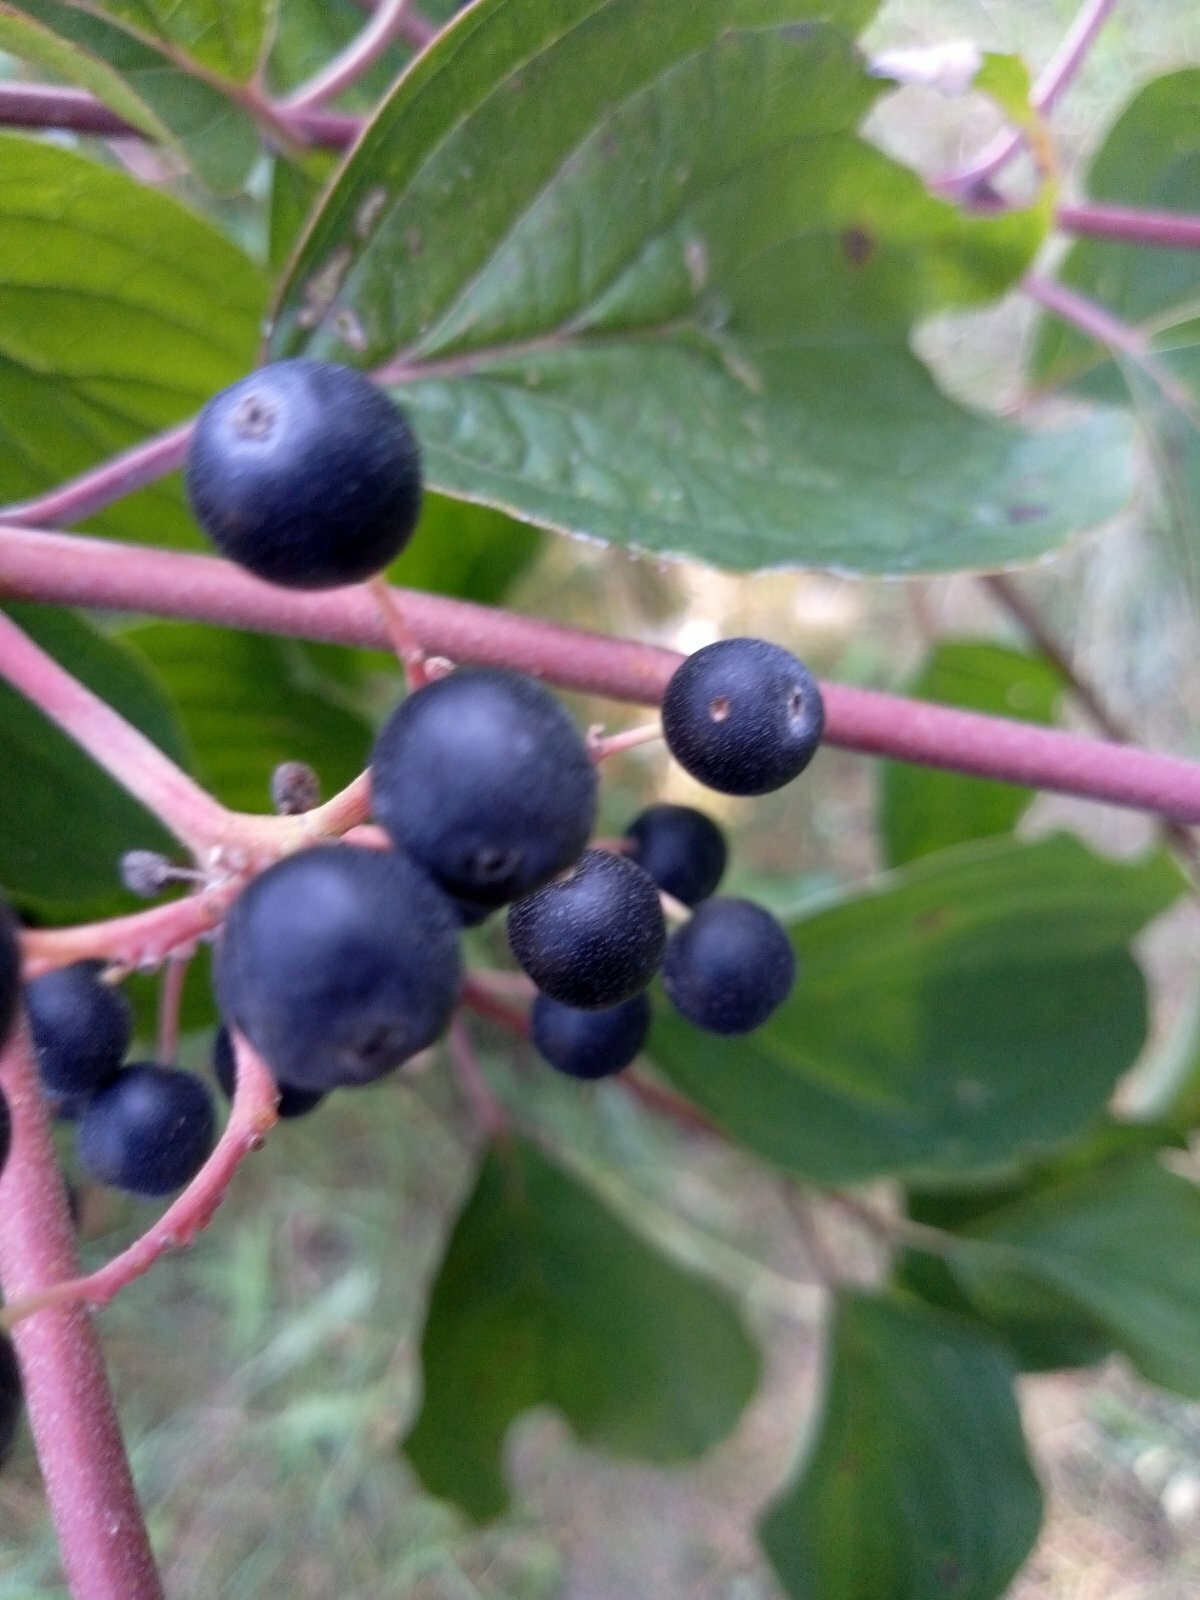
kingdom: Plantae
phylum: Tracheophyta
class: Magnoliopsida
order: Cornales
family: Cornaceae
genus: Cornus
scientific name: Cornus sanguinea
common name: Dogwood
